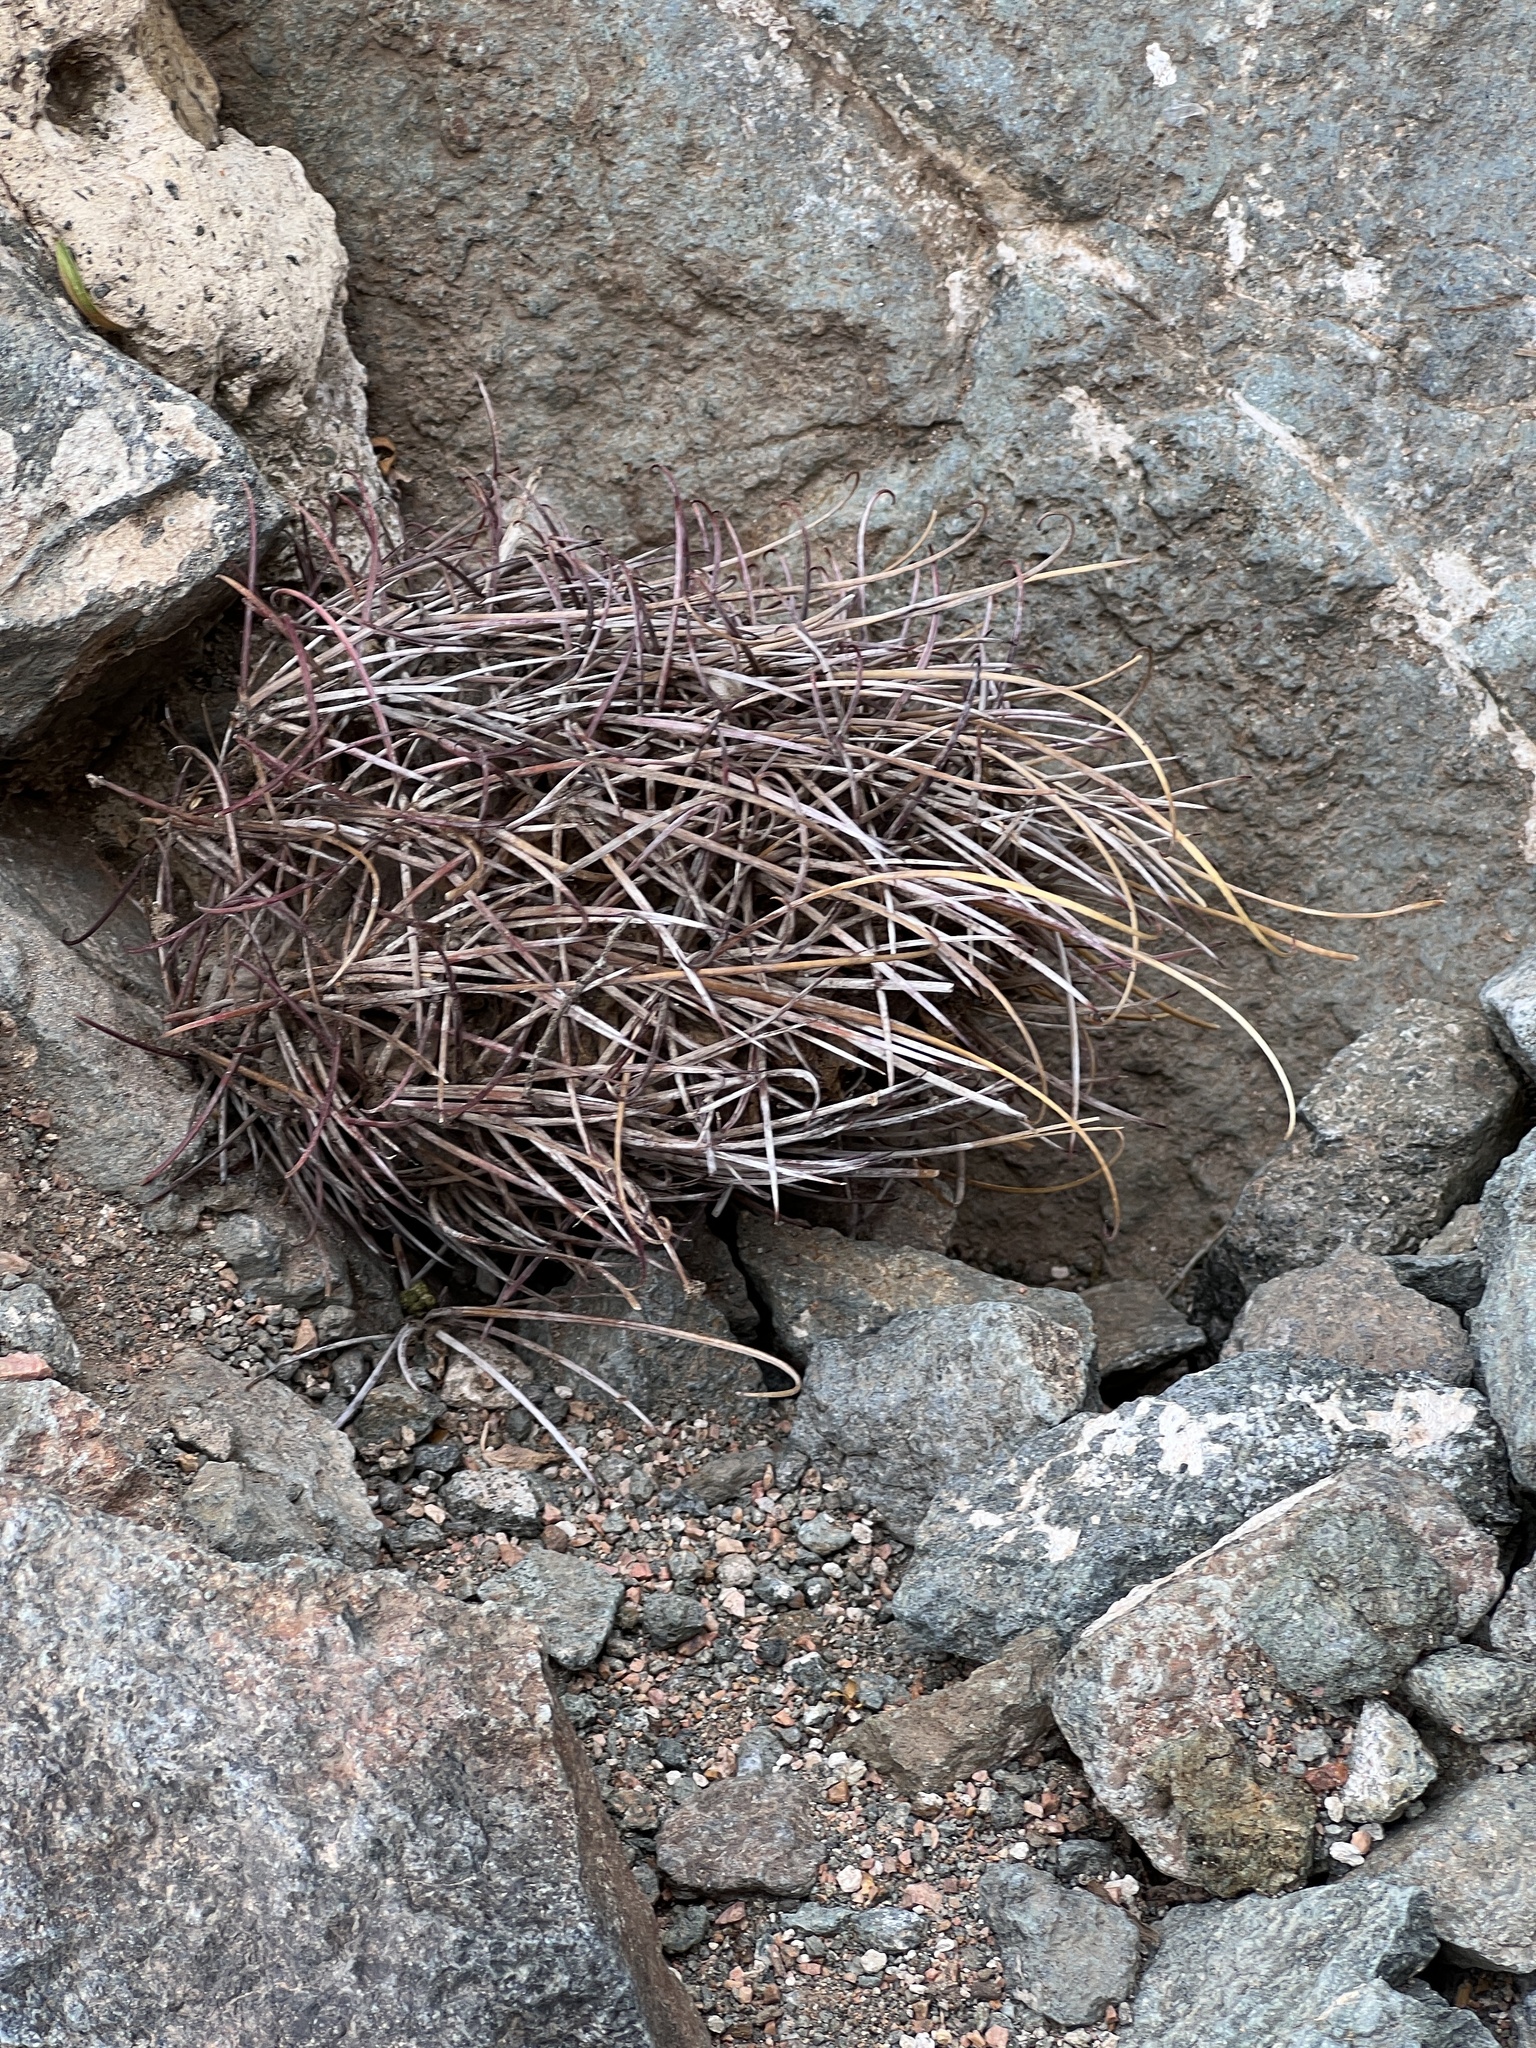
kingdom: Plantae
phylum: Tracheophyta
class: Magnoliopsida
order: Caryophyllales
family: Cactaceae
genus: Ferocactus
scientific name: Ferocactus uncinatus
